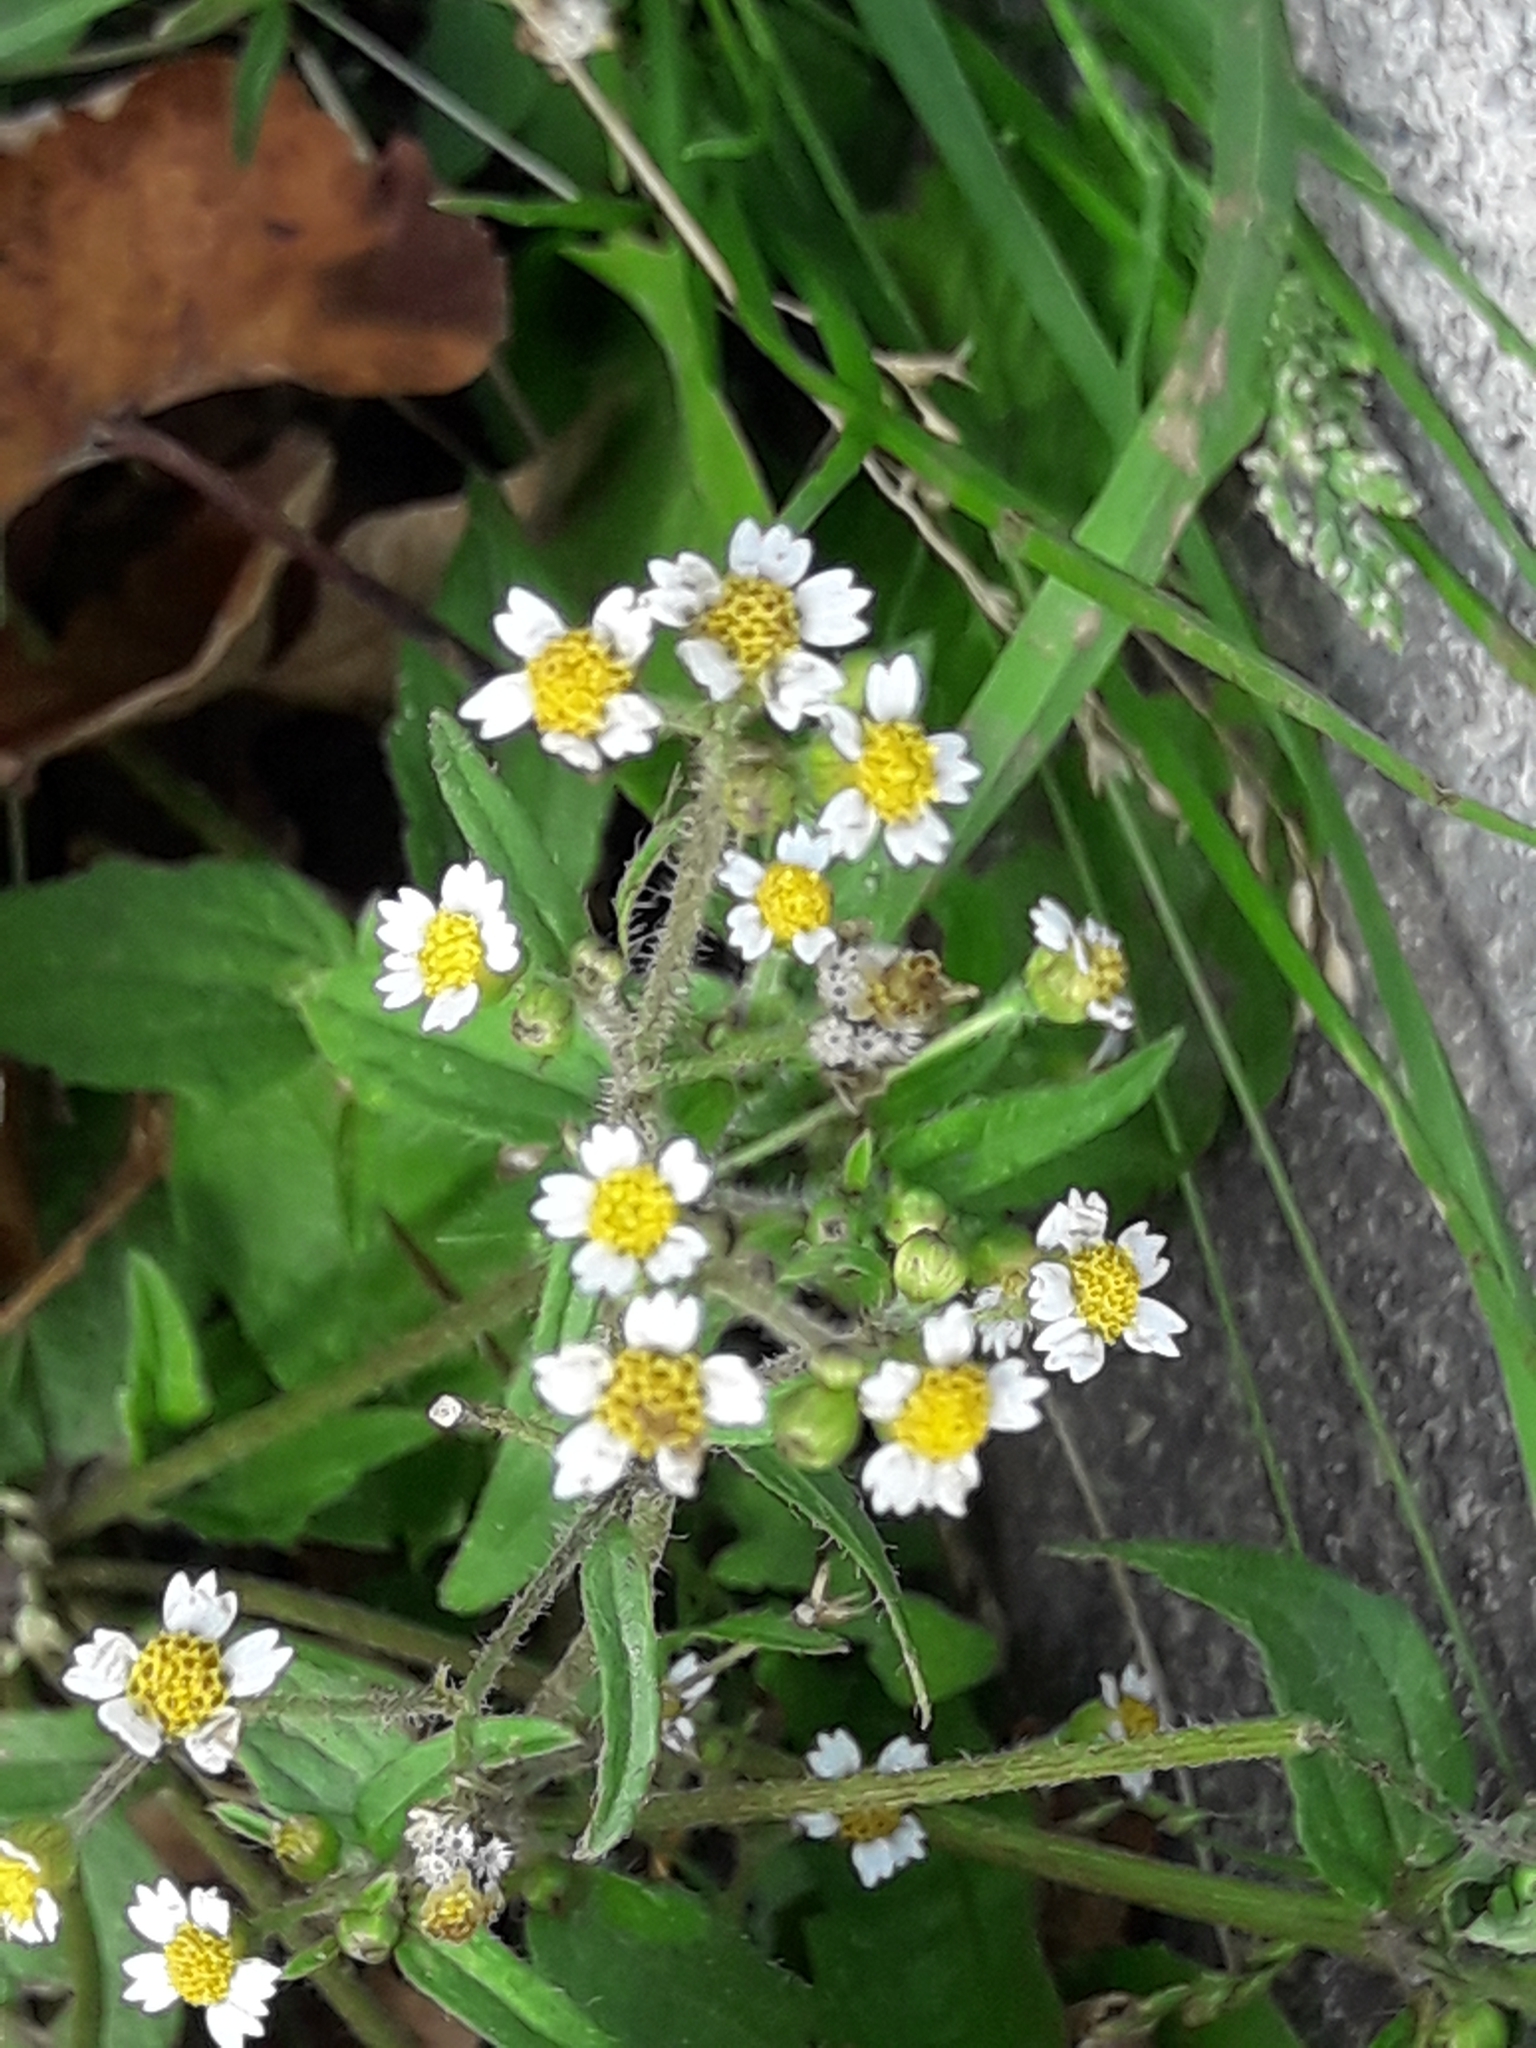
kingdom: Plantae
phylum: Tracheophyta
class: Magnoliopsida
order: Asterales
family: Asteraceae
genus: Galinsoga
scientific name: Galinsoga quadriradiata
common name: Shaggy soldier
